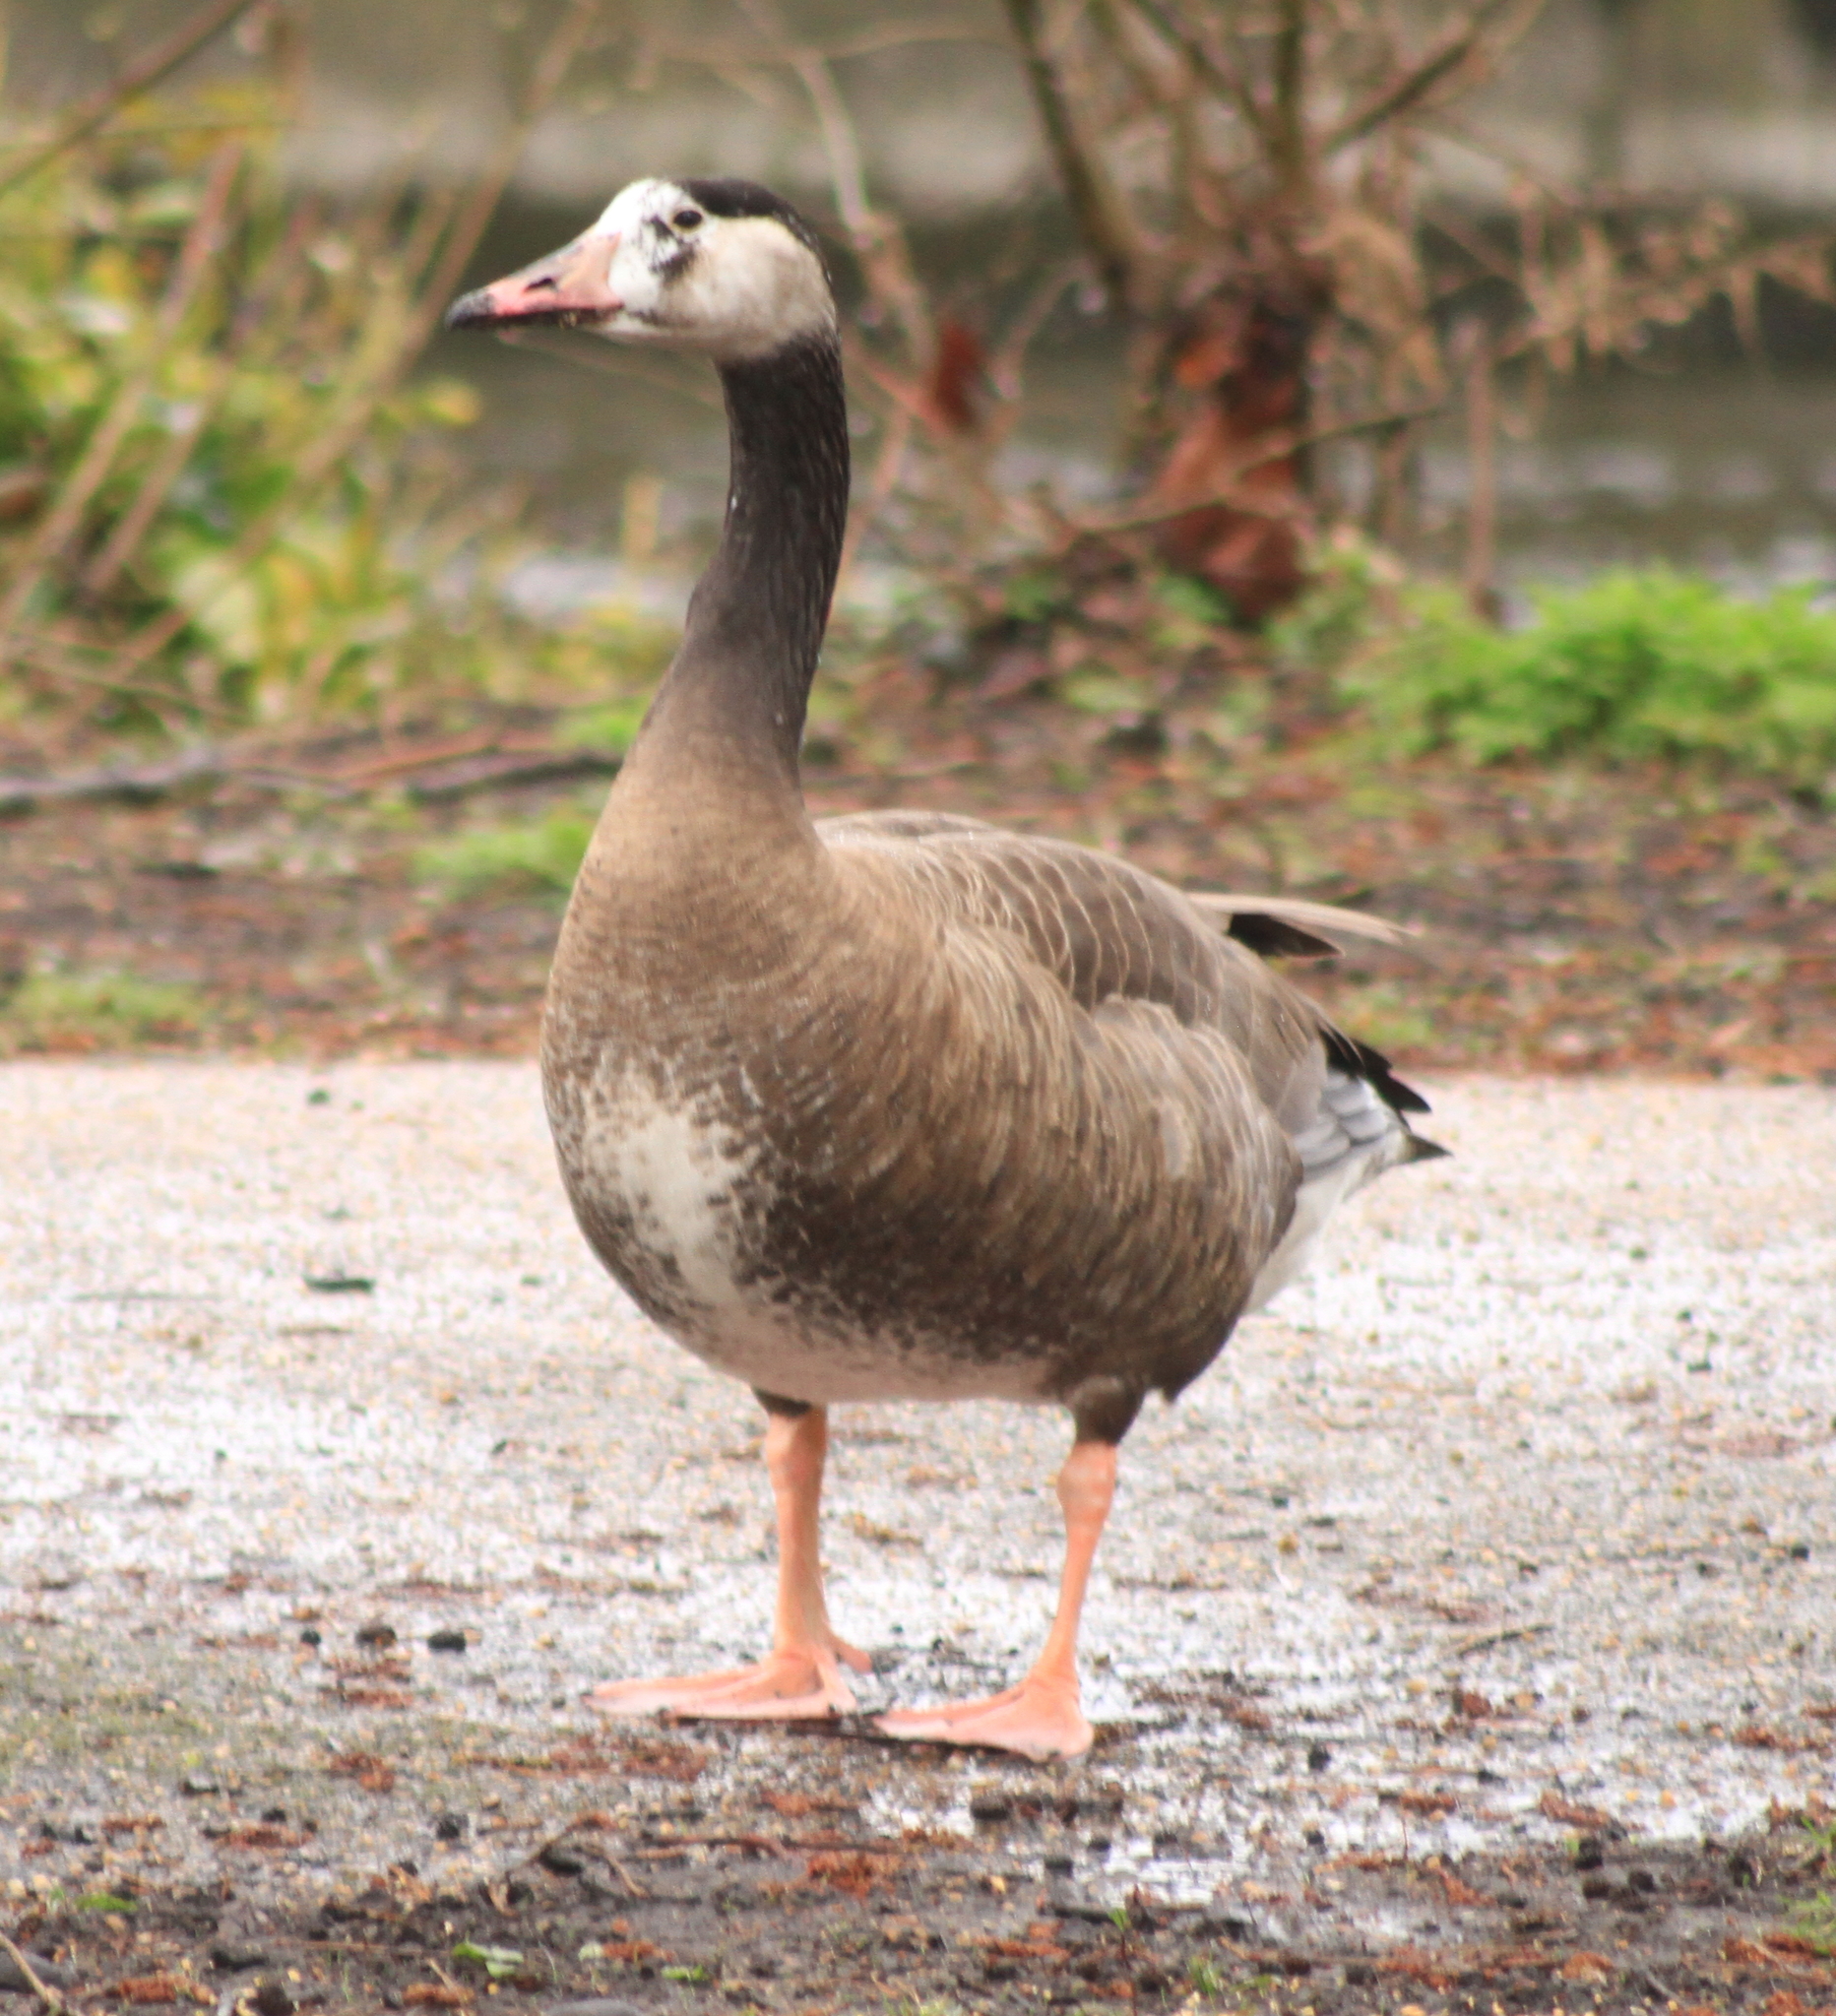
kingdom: Animalia
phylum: Chordata
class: Aves
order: Anseriformes
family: Anatidae
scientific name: Anatidae
